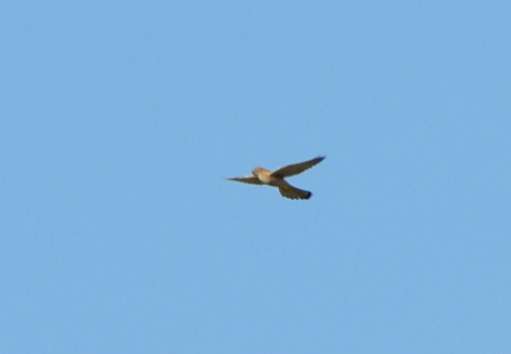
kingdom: Animalia
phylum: Chordata
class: Aves
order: Falconiformes
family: Falconidae
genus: Falco
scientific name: Falco tinnunculus
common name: Common kestrel
